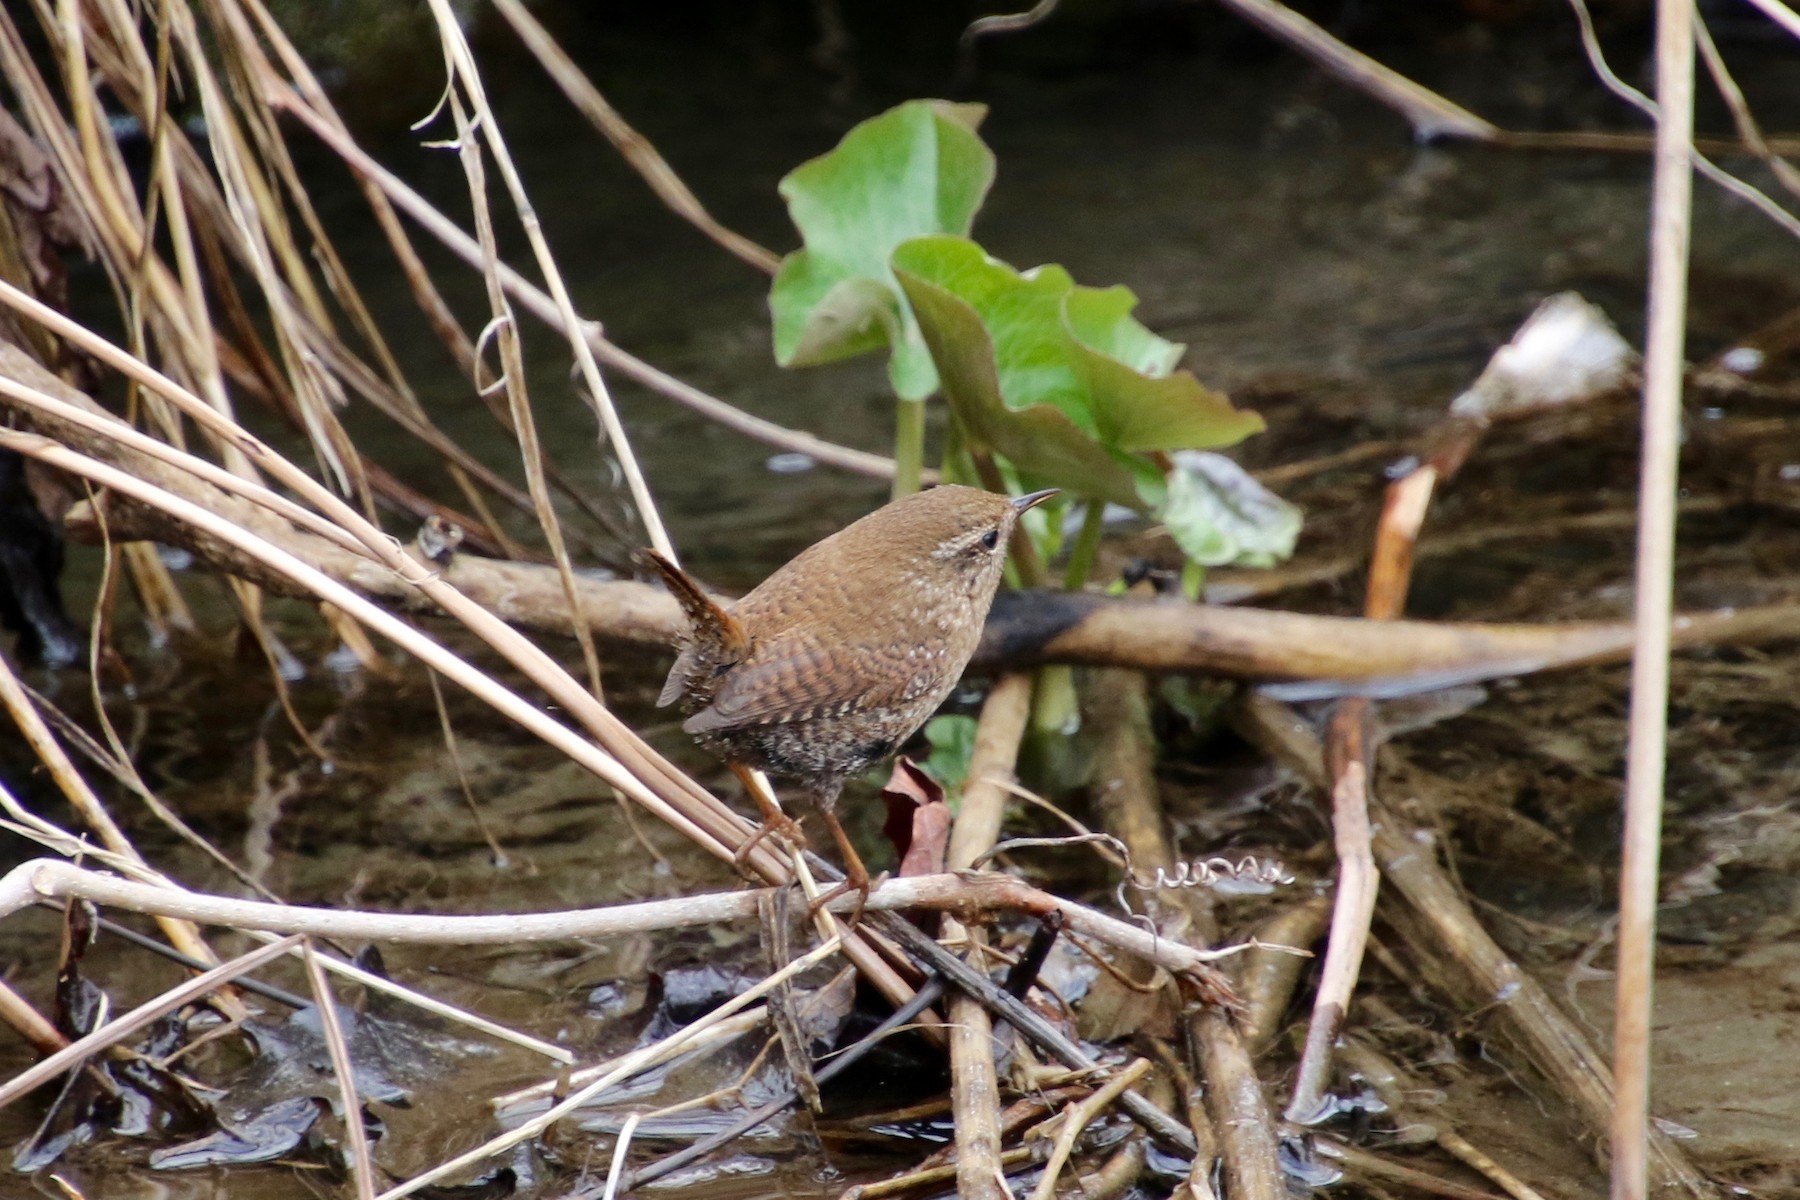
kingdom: Animalia
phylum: Chordata
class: Aves
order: Passeriformes
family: Troglodytidae
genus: Troglodytes
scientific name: Troglodytes hiemalis
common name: Winter wren
